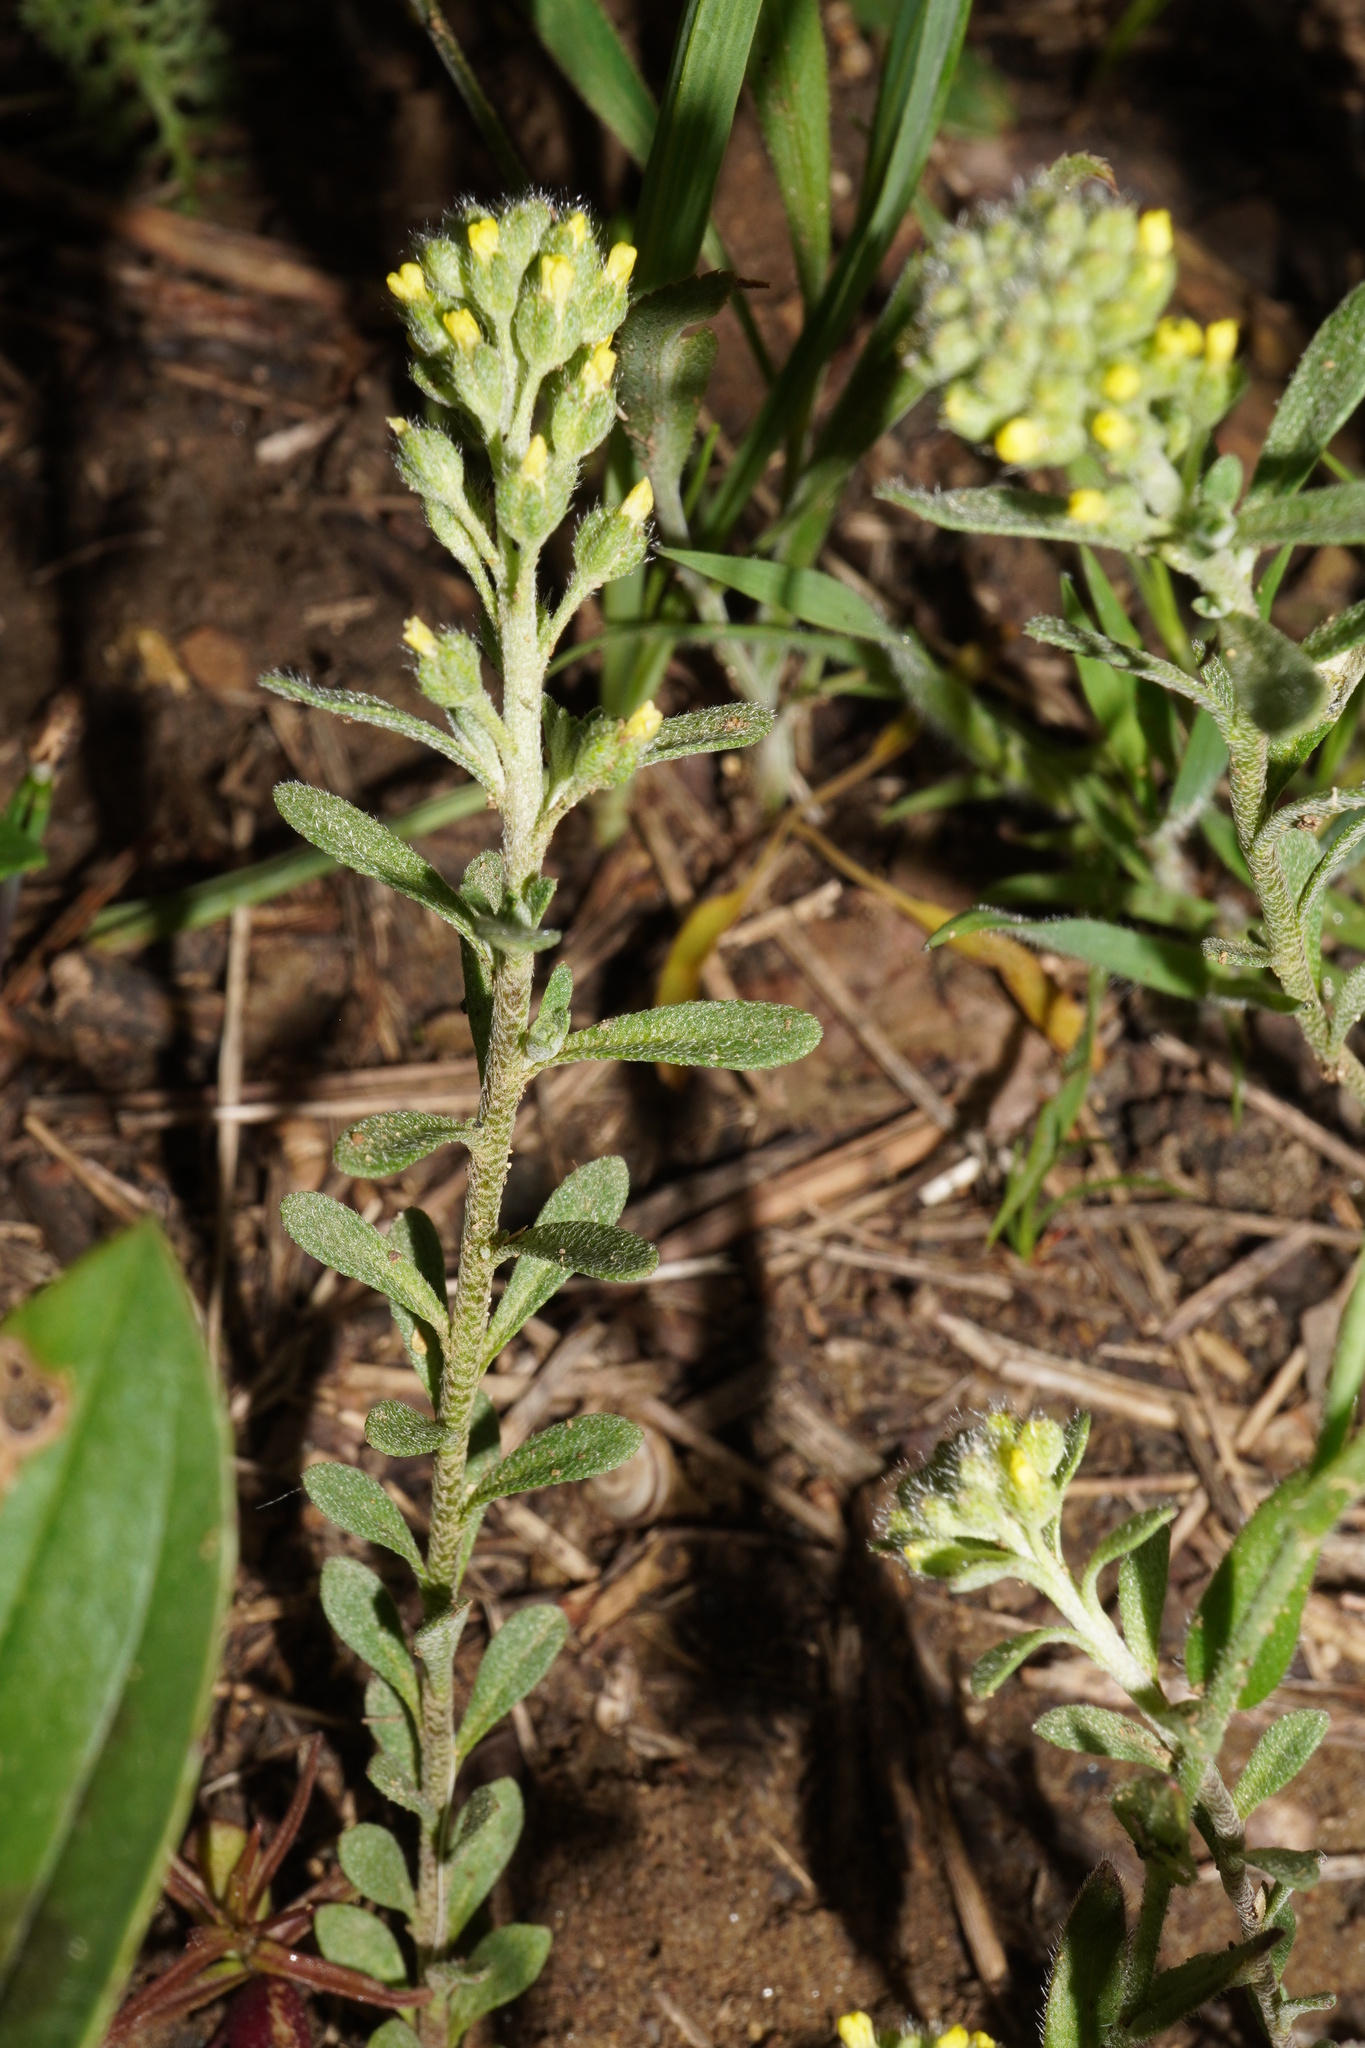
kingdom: Plantae
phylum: Tracheophyta
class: Magnoliopsida
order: Brassicales
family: Brassicaceae
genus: Alyssum
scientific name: Alyssum alyssoides
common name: Small alison
